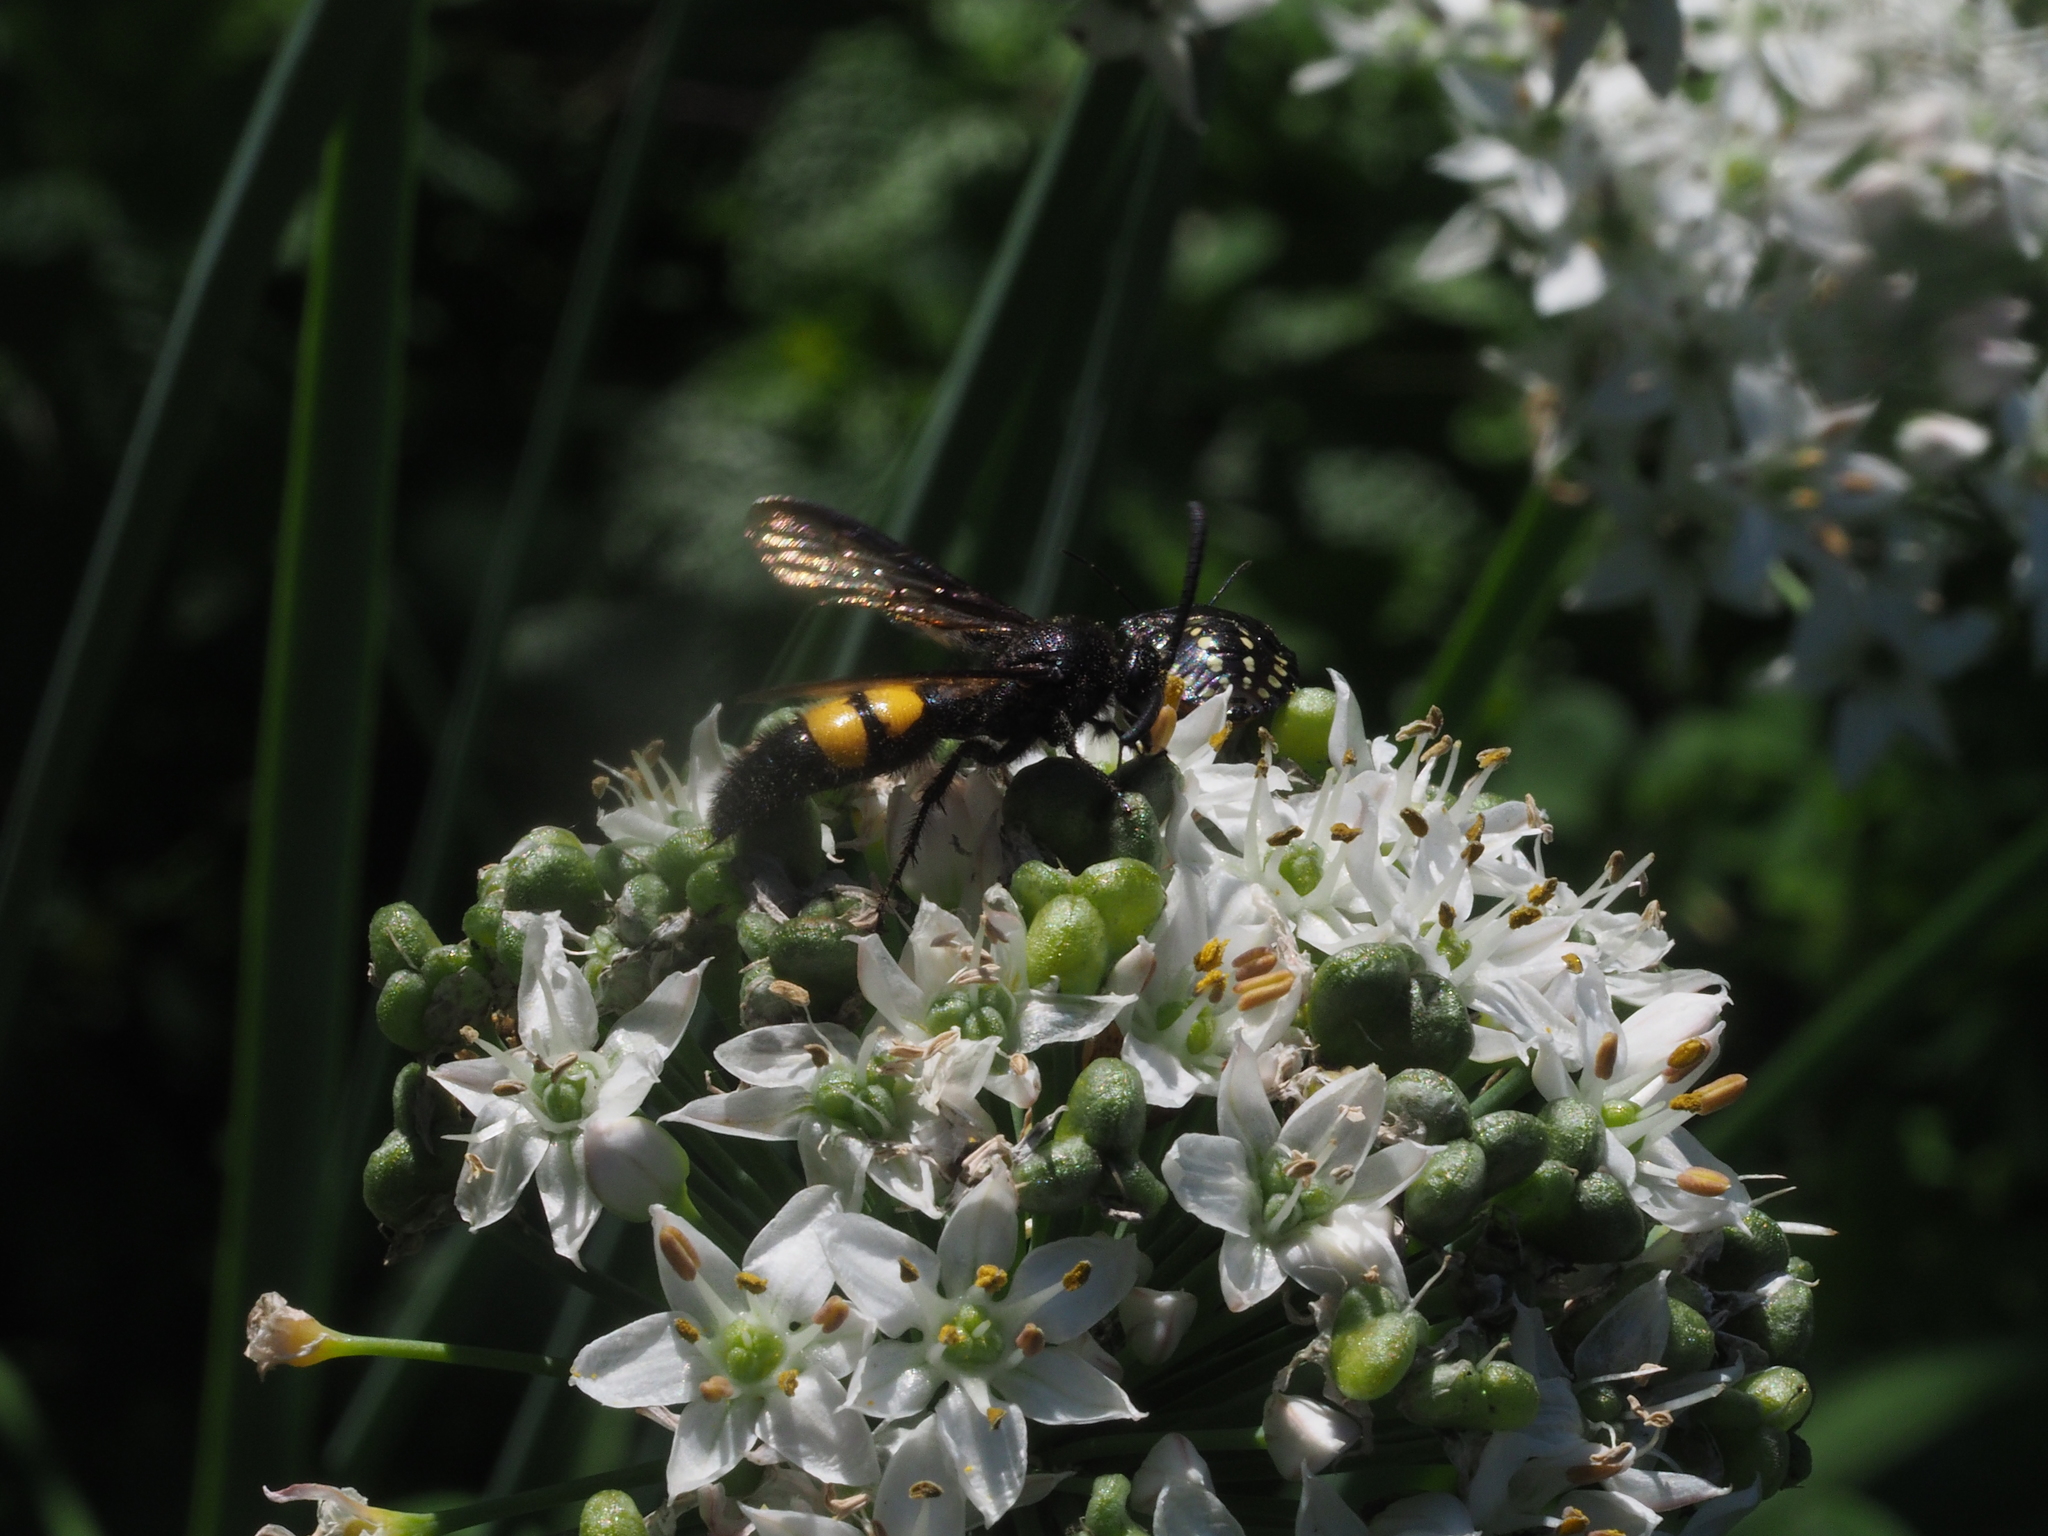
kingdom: Animalia
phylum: Arthropoda
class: Insecta
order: Hymenoptera
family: Scoliidae
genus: Scolia
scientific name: Scolia hirta
